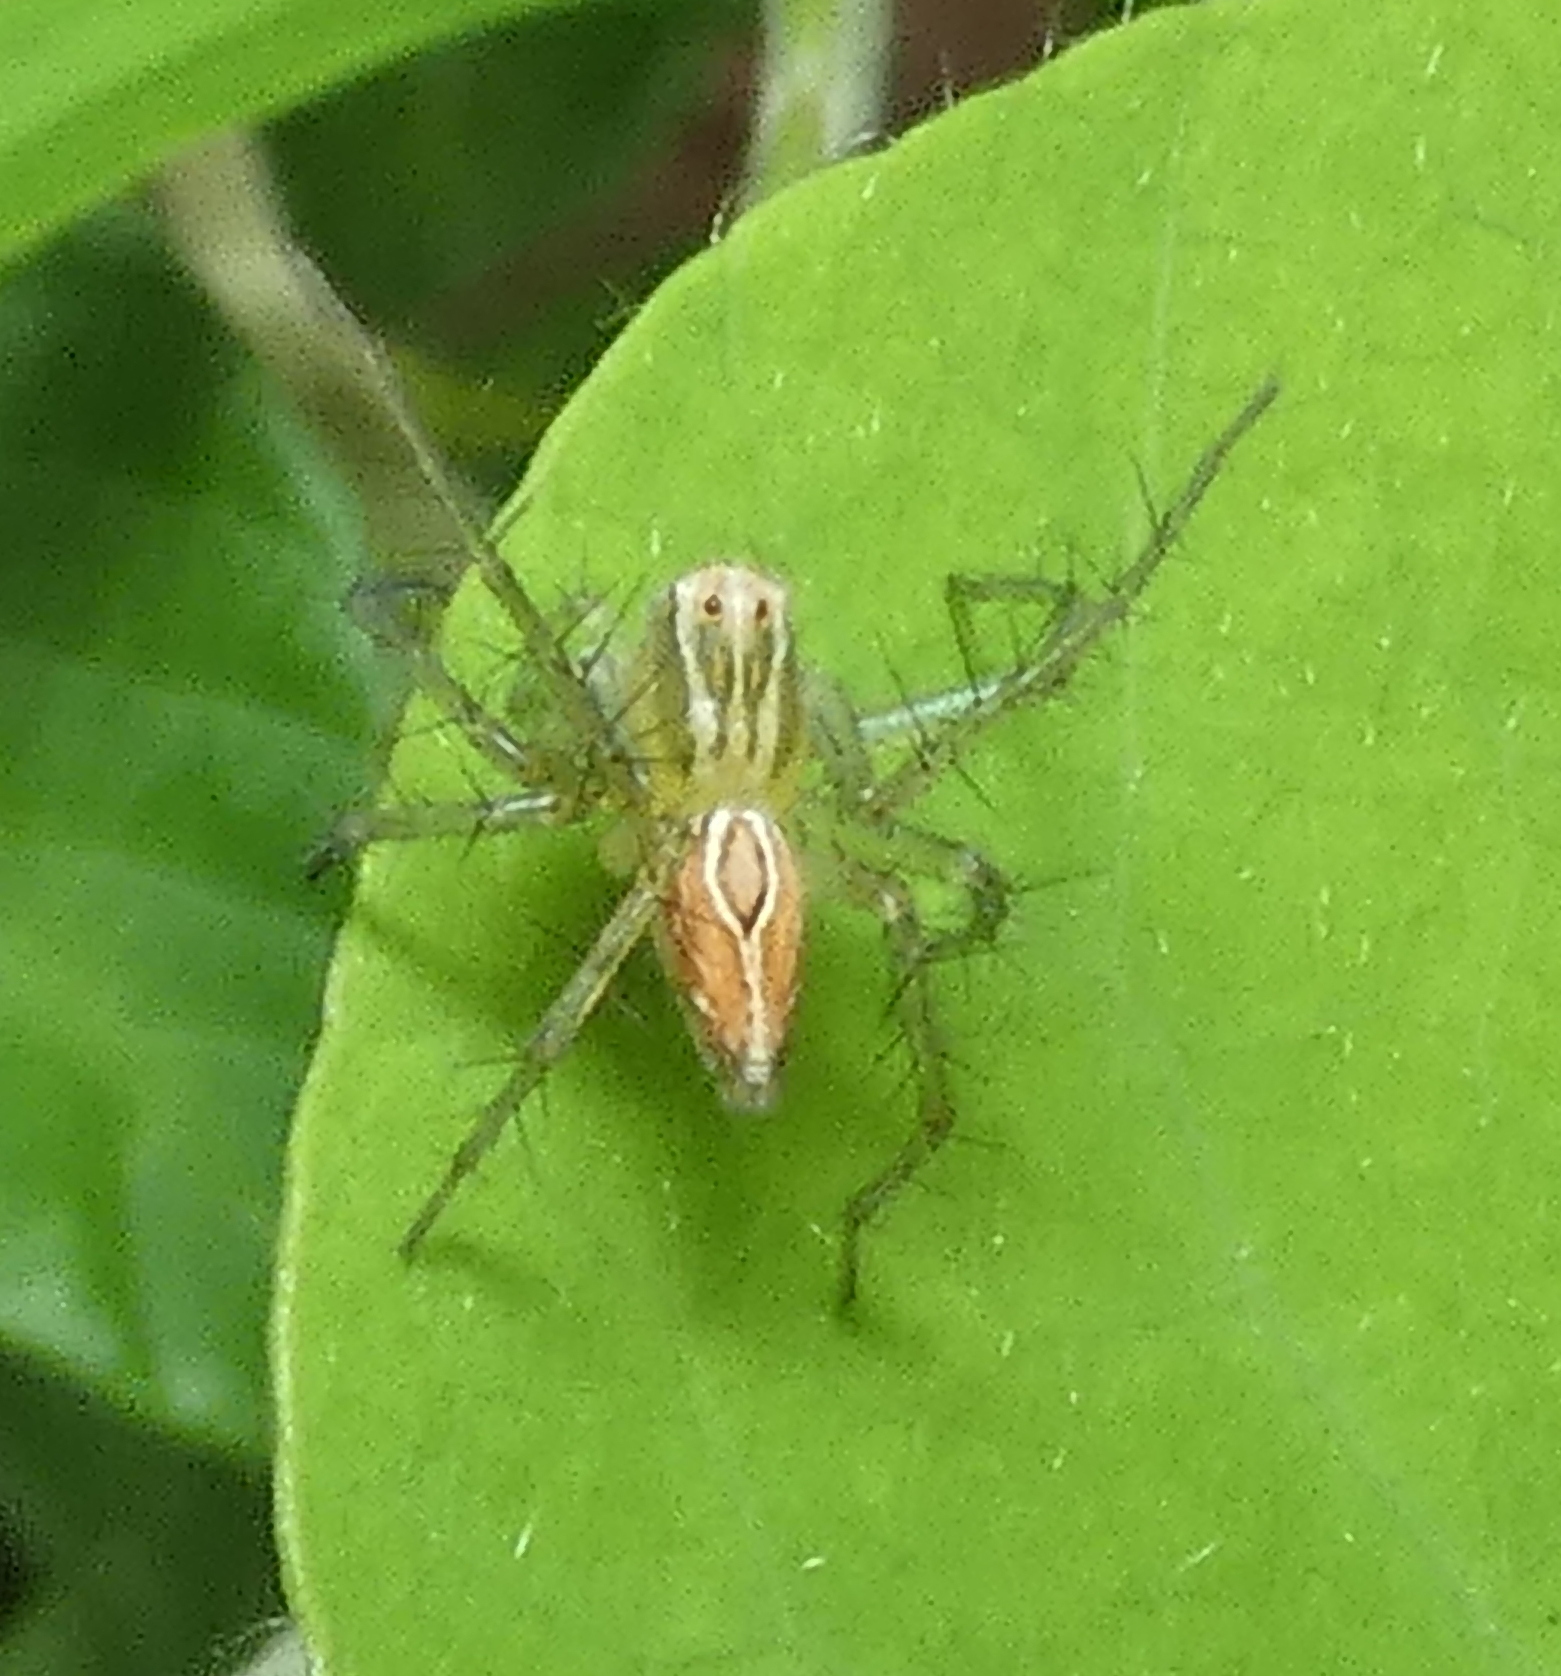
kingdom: Animalia
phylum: Arthropoda
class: Arachnida
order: Araneae
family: Oxyopidae
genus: Oxyopes
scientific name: Oxyopes salticus
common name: Lynx spiders
